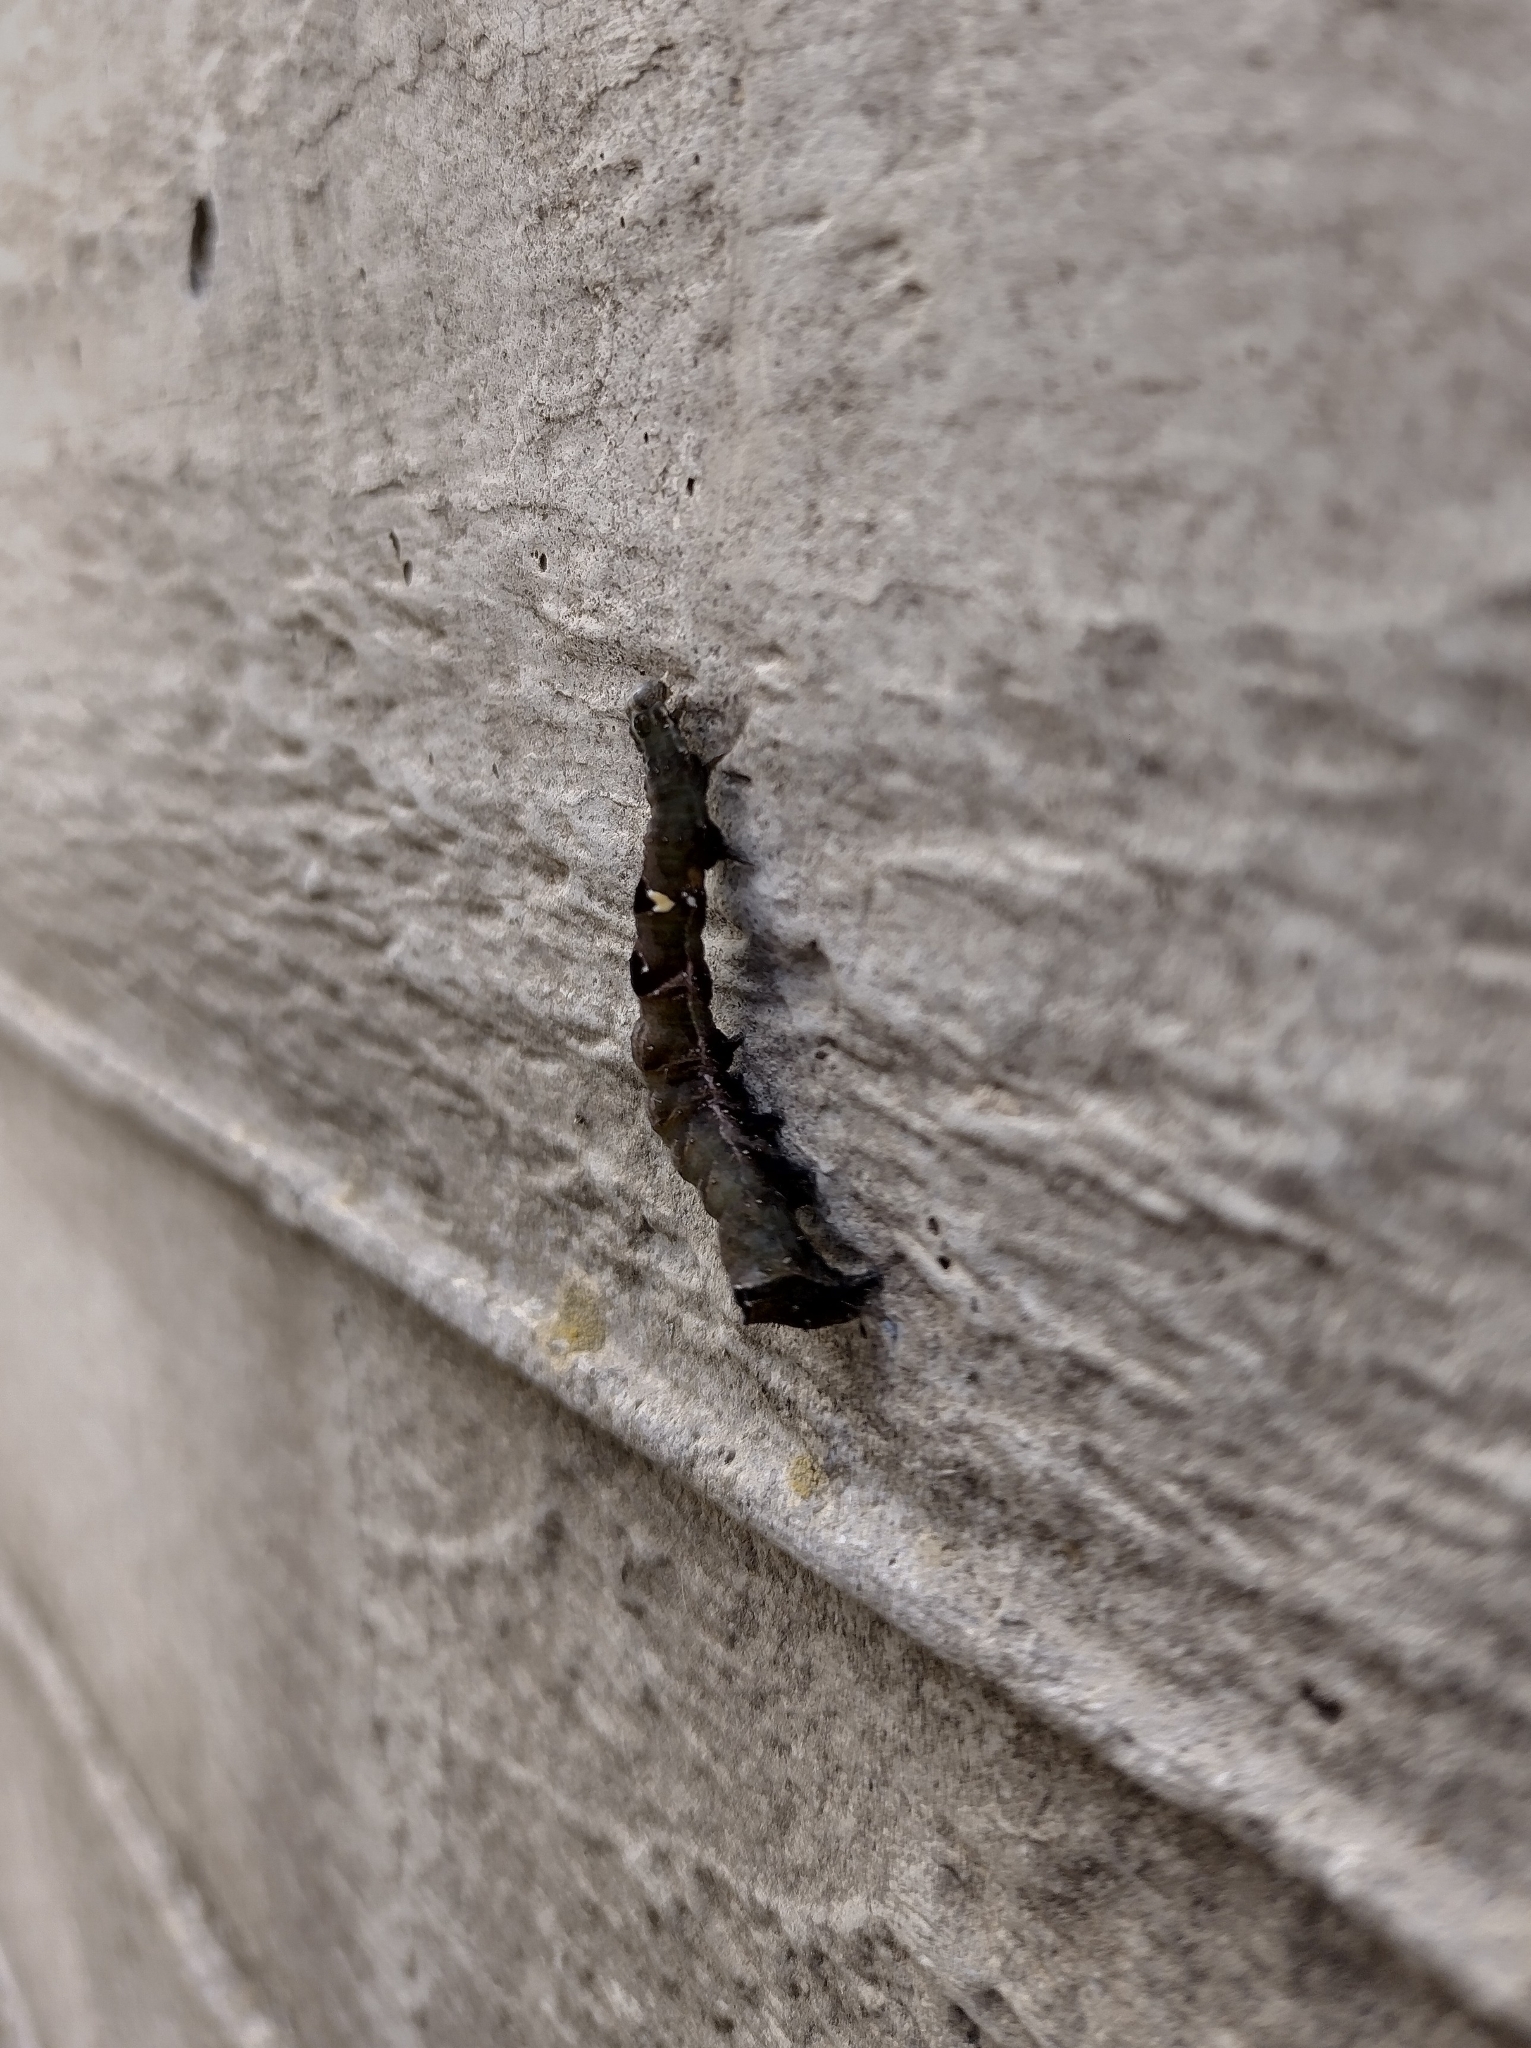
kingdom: Animalia
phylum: Arthropoda
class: Insecta
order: Lepidoptera
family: Noctuidae
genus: Abrostola
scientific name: Abrostola triplasia
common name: Dark spectacle
